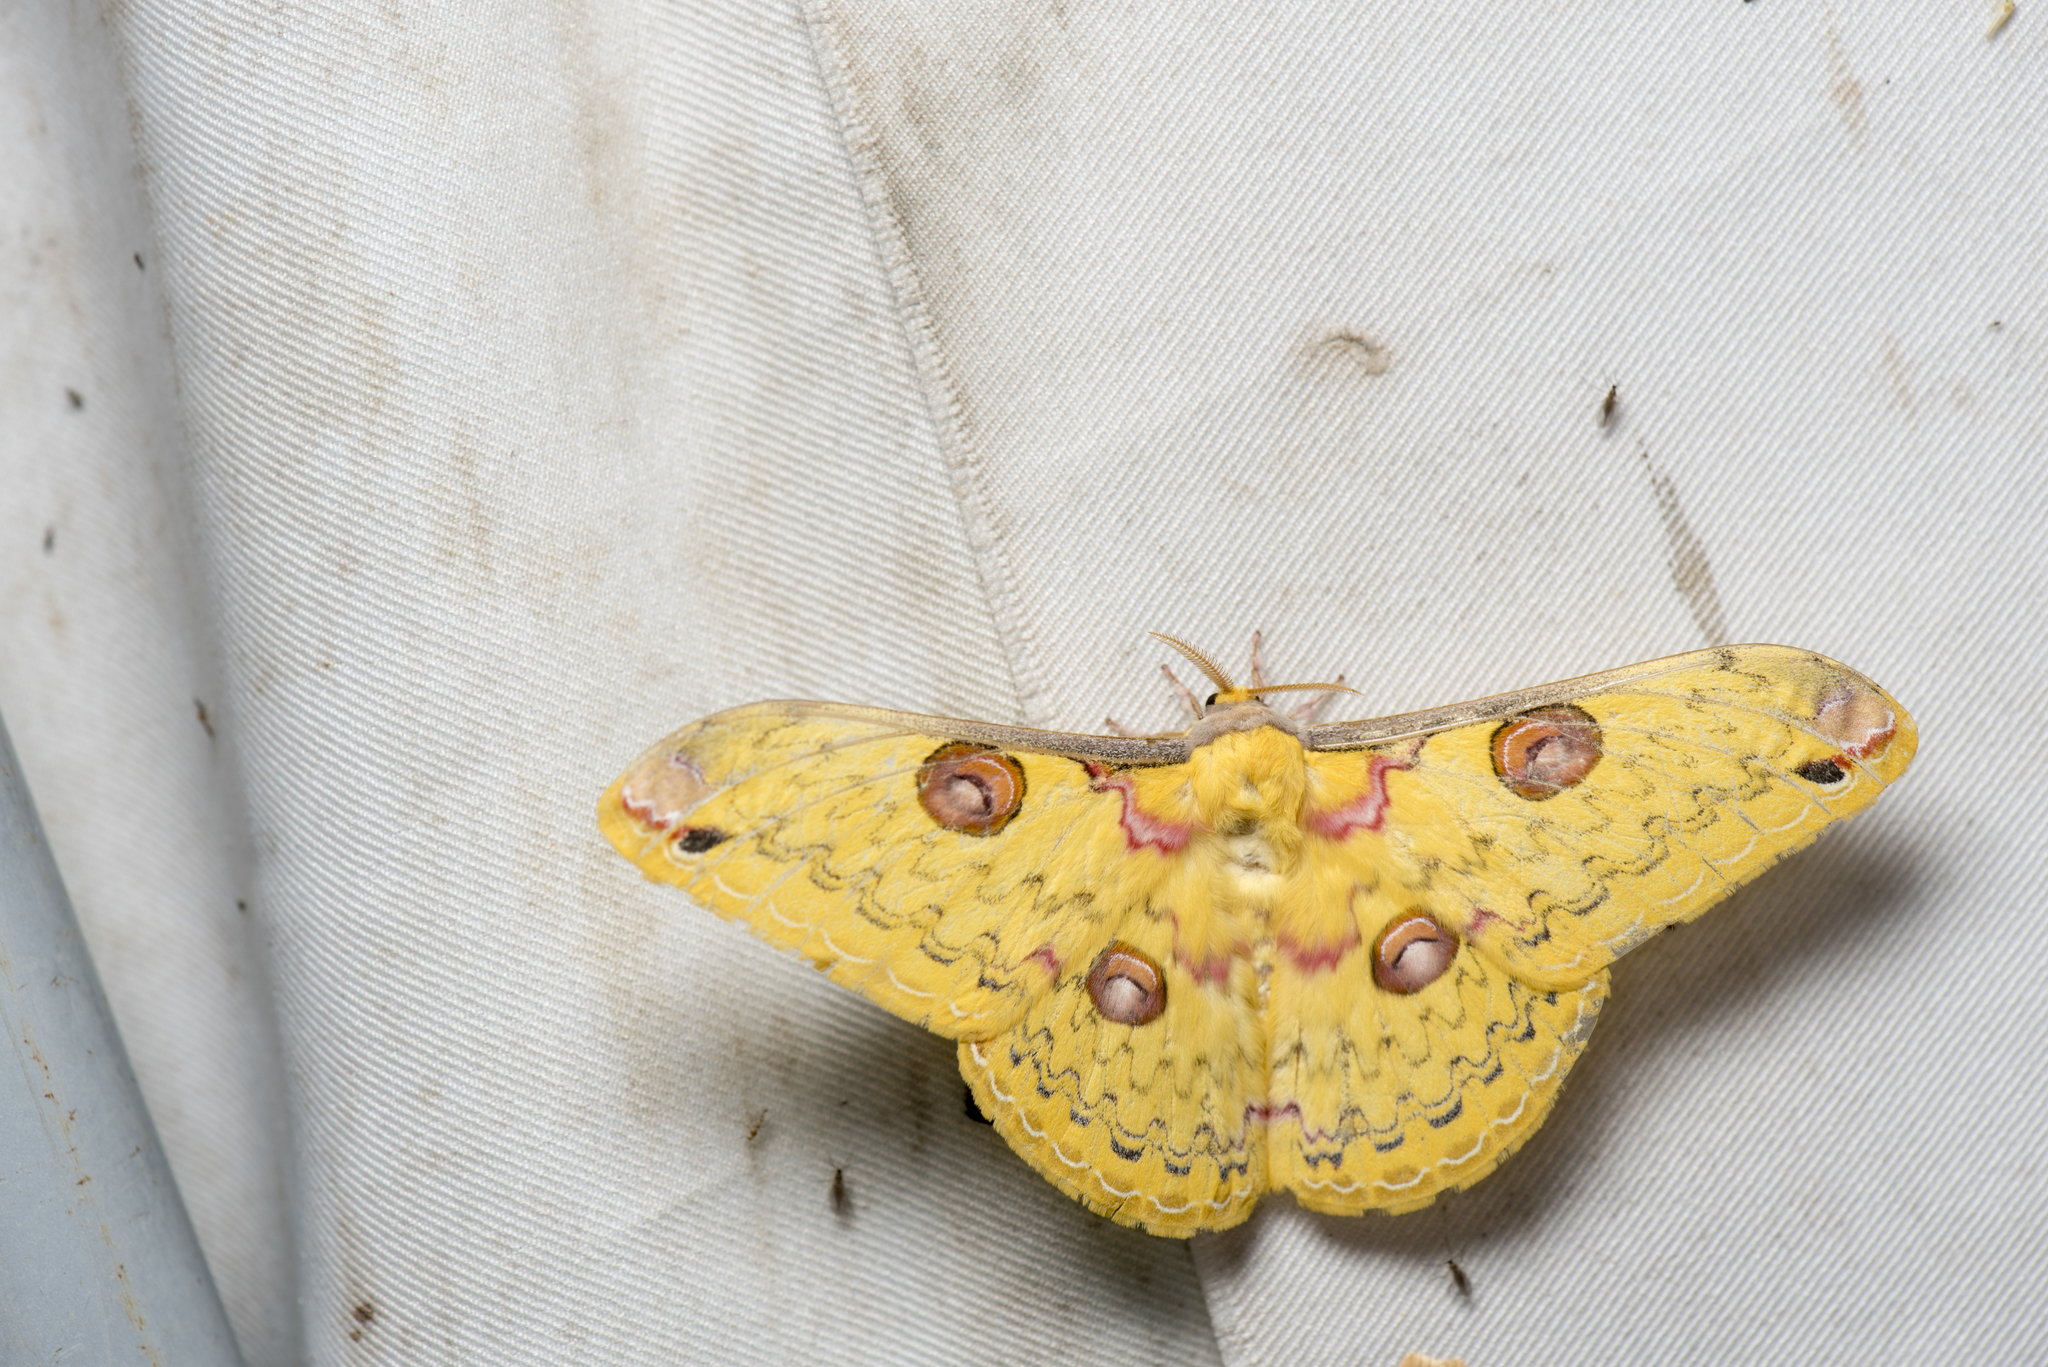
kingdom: Animalia
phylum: Arthropoda
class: Insecta
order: Lepidoptera
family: Saturniidae
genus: Loepa
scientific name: Loepa formosensis
